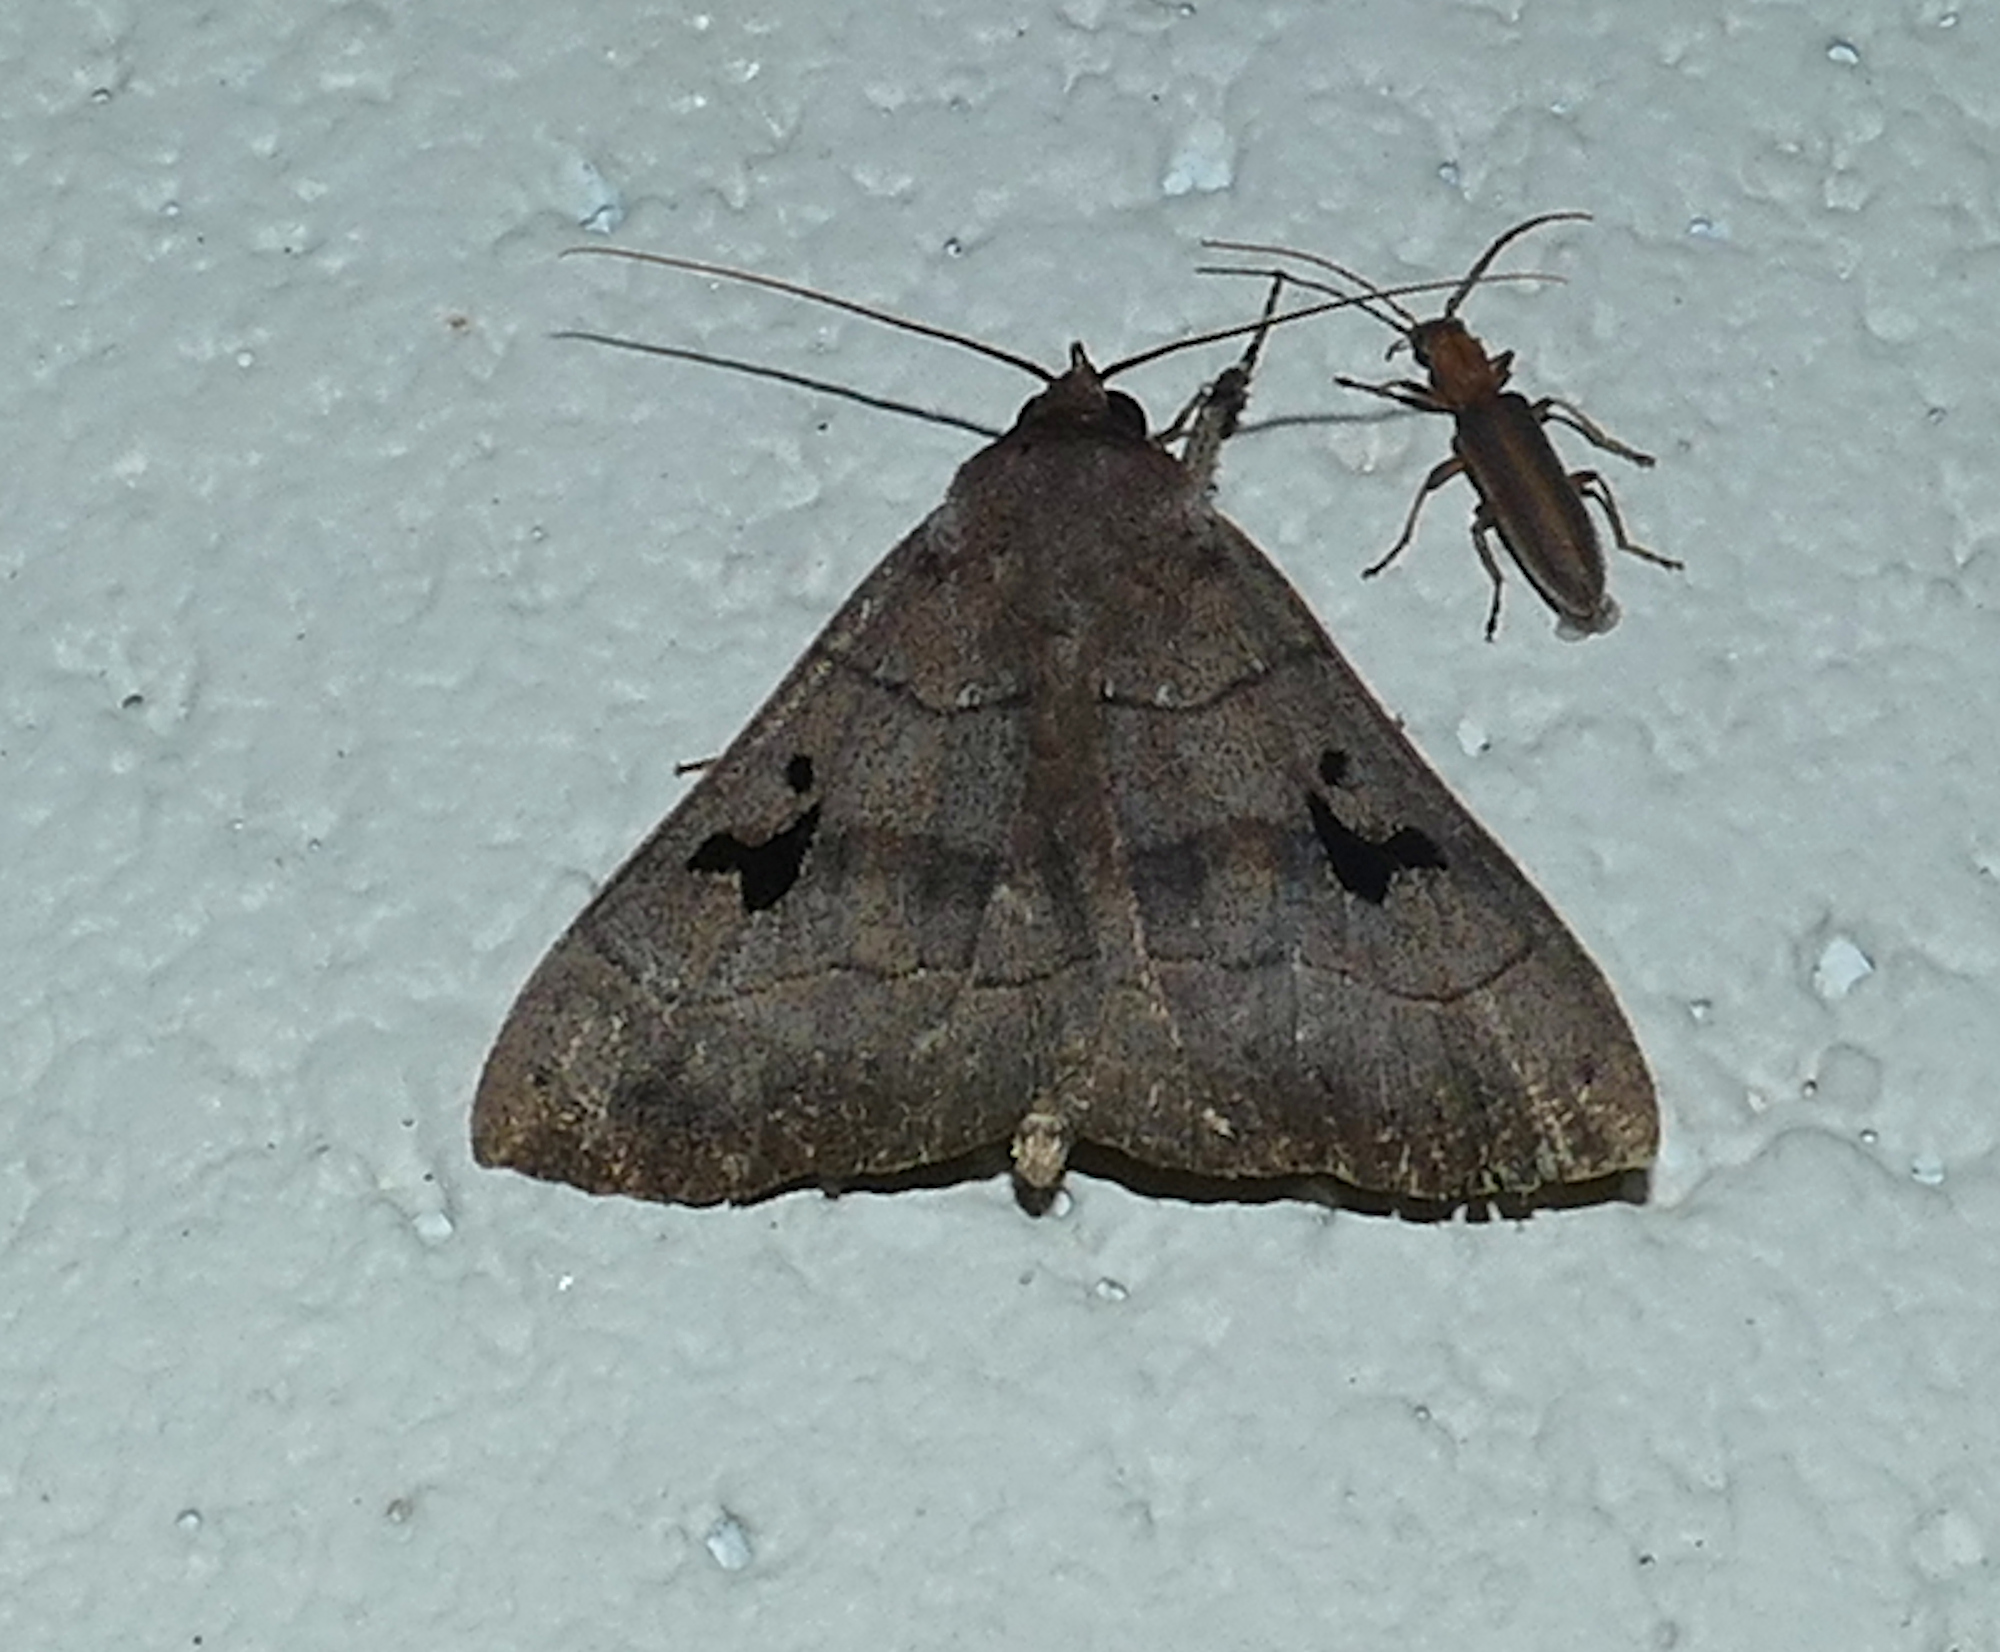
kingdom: Animalia
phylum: Arthropoda
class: Insecta
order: Lepidoptera
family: Erebidae
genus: Panopoda
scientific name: Panopoda carneicosta
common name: Brown panopoda moth
